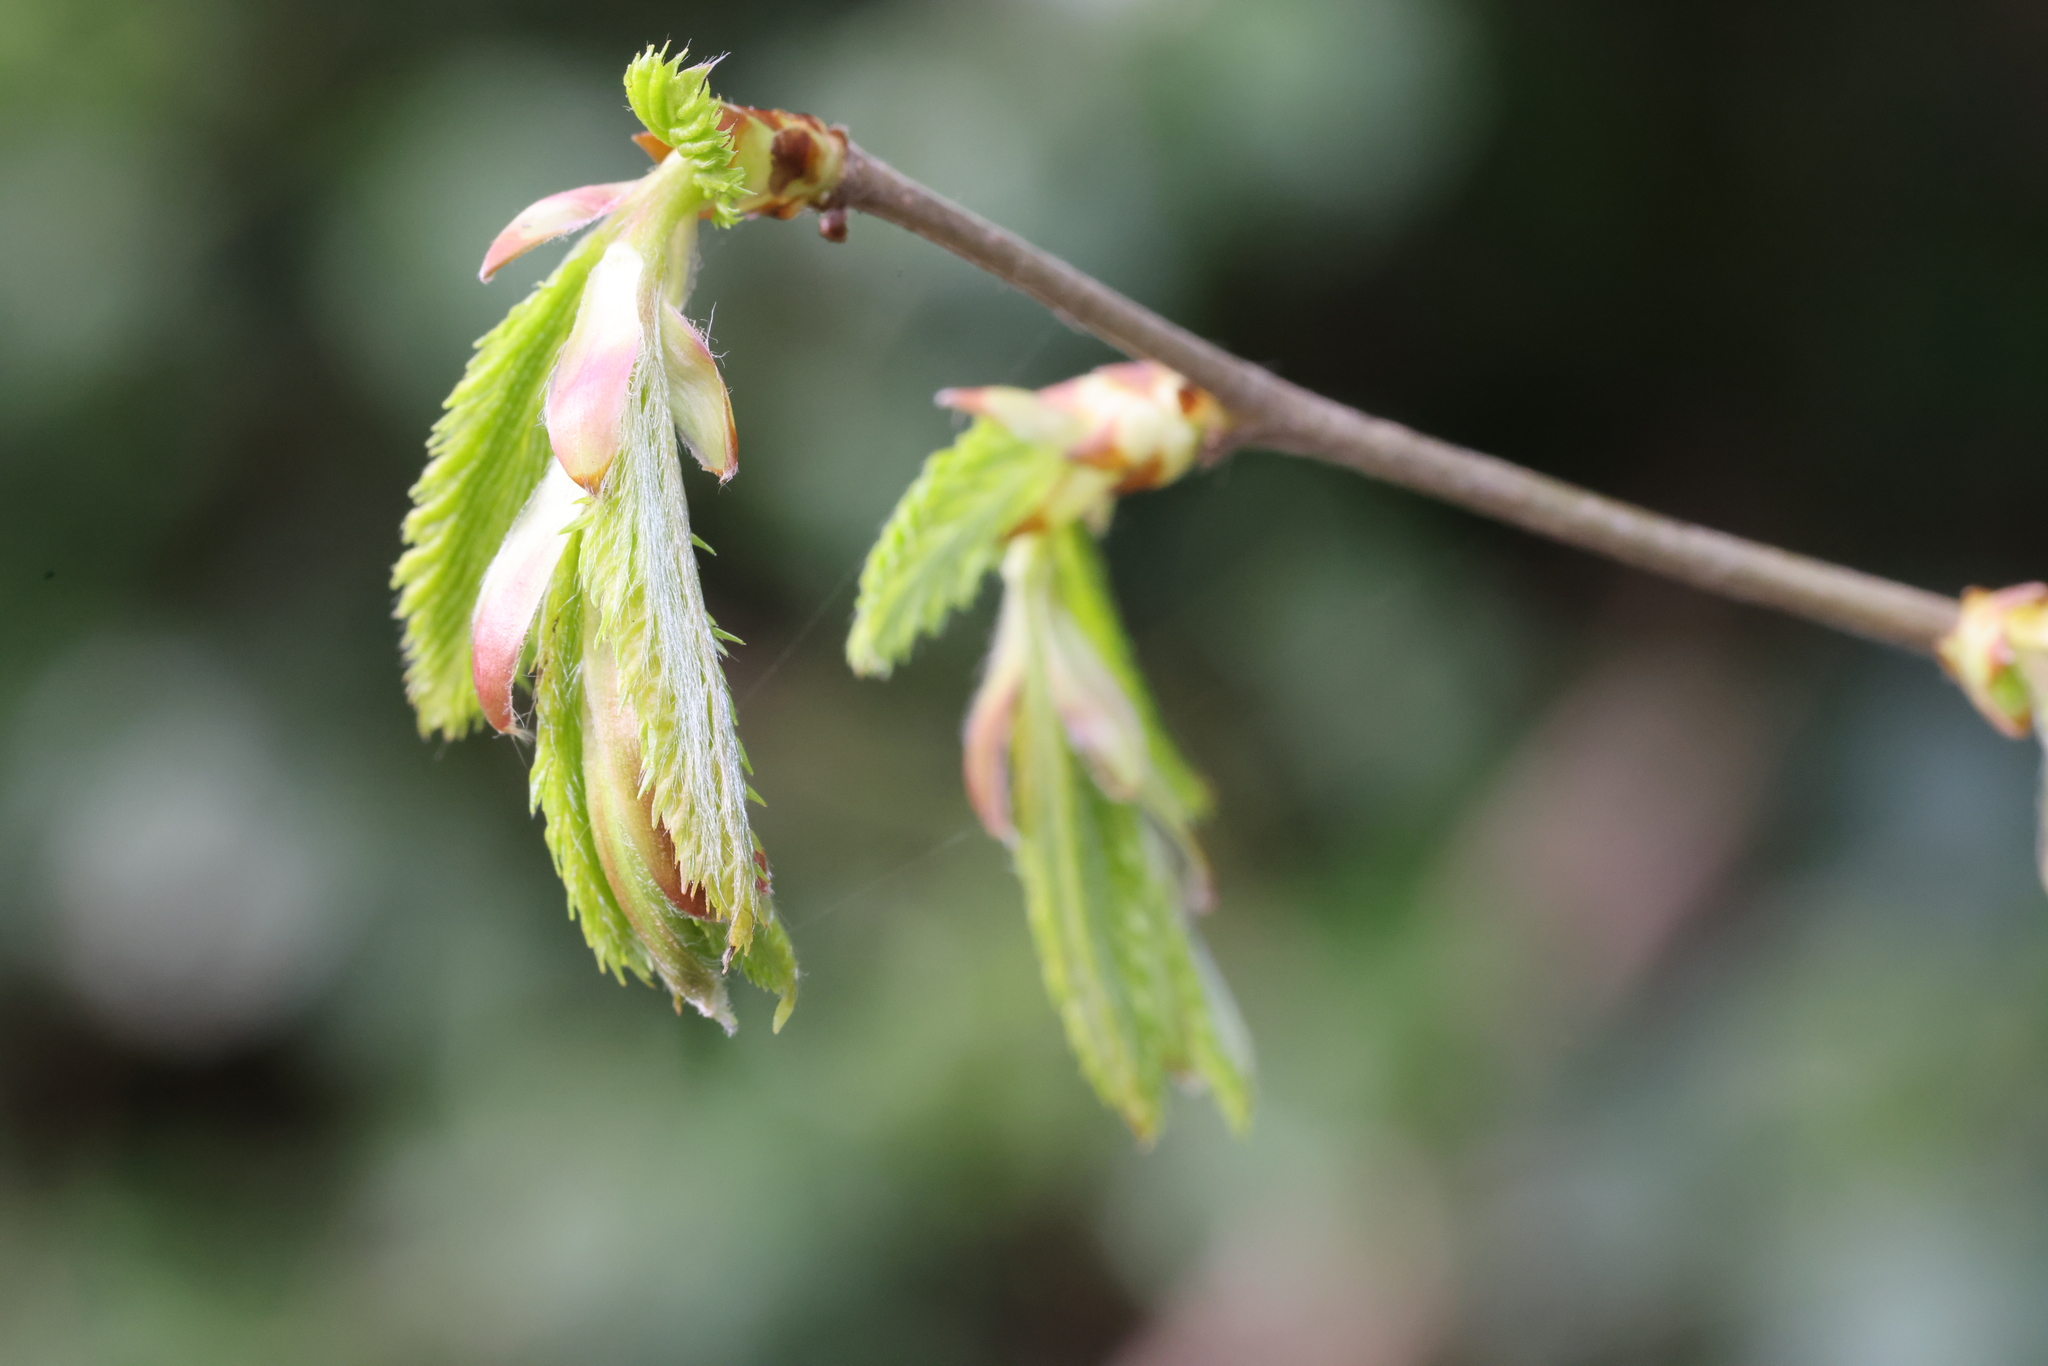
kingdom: Plantae
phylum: Tracheophyta
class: Magnoliopsida
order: Fagales
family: Betulaceae
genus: Corylus
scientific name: Corylus avellana
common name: European hazel
